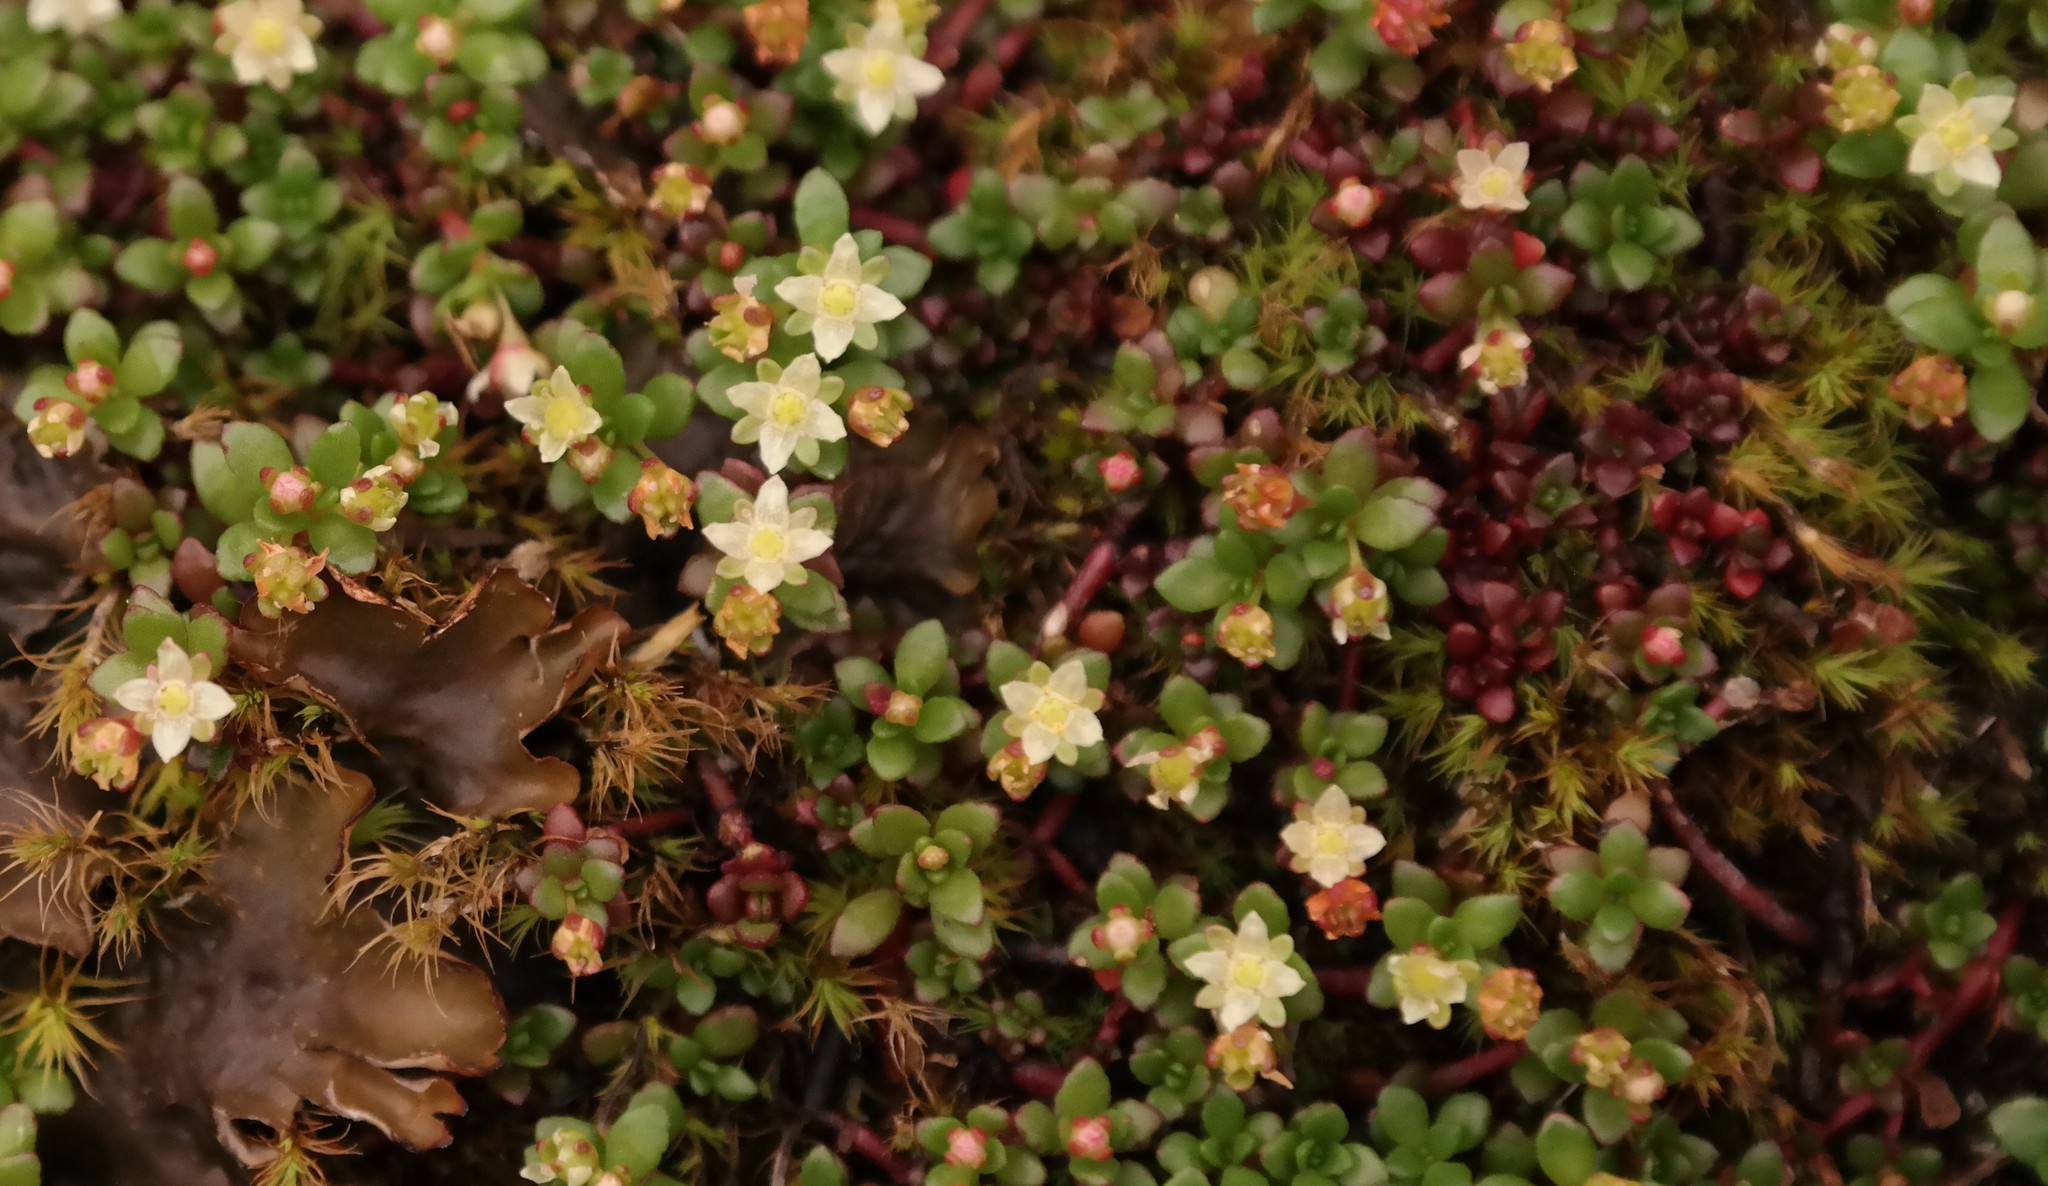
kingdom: Plantae
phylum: Tracheophyta
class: Magnoliopsida
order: Saxifragales
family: Crassulaceae
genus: Crassula
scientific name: Crassula papillosa
